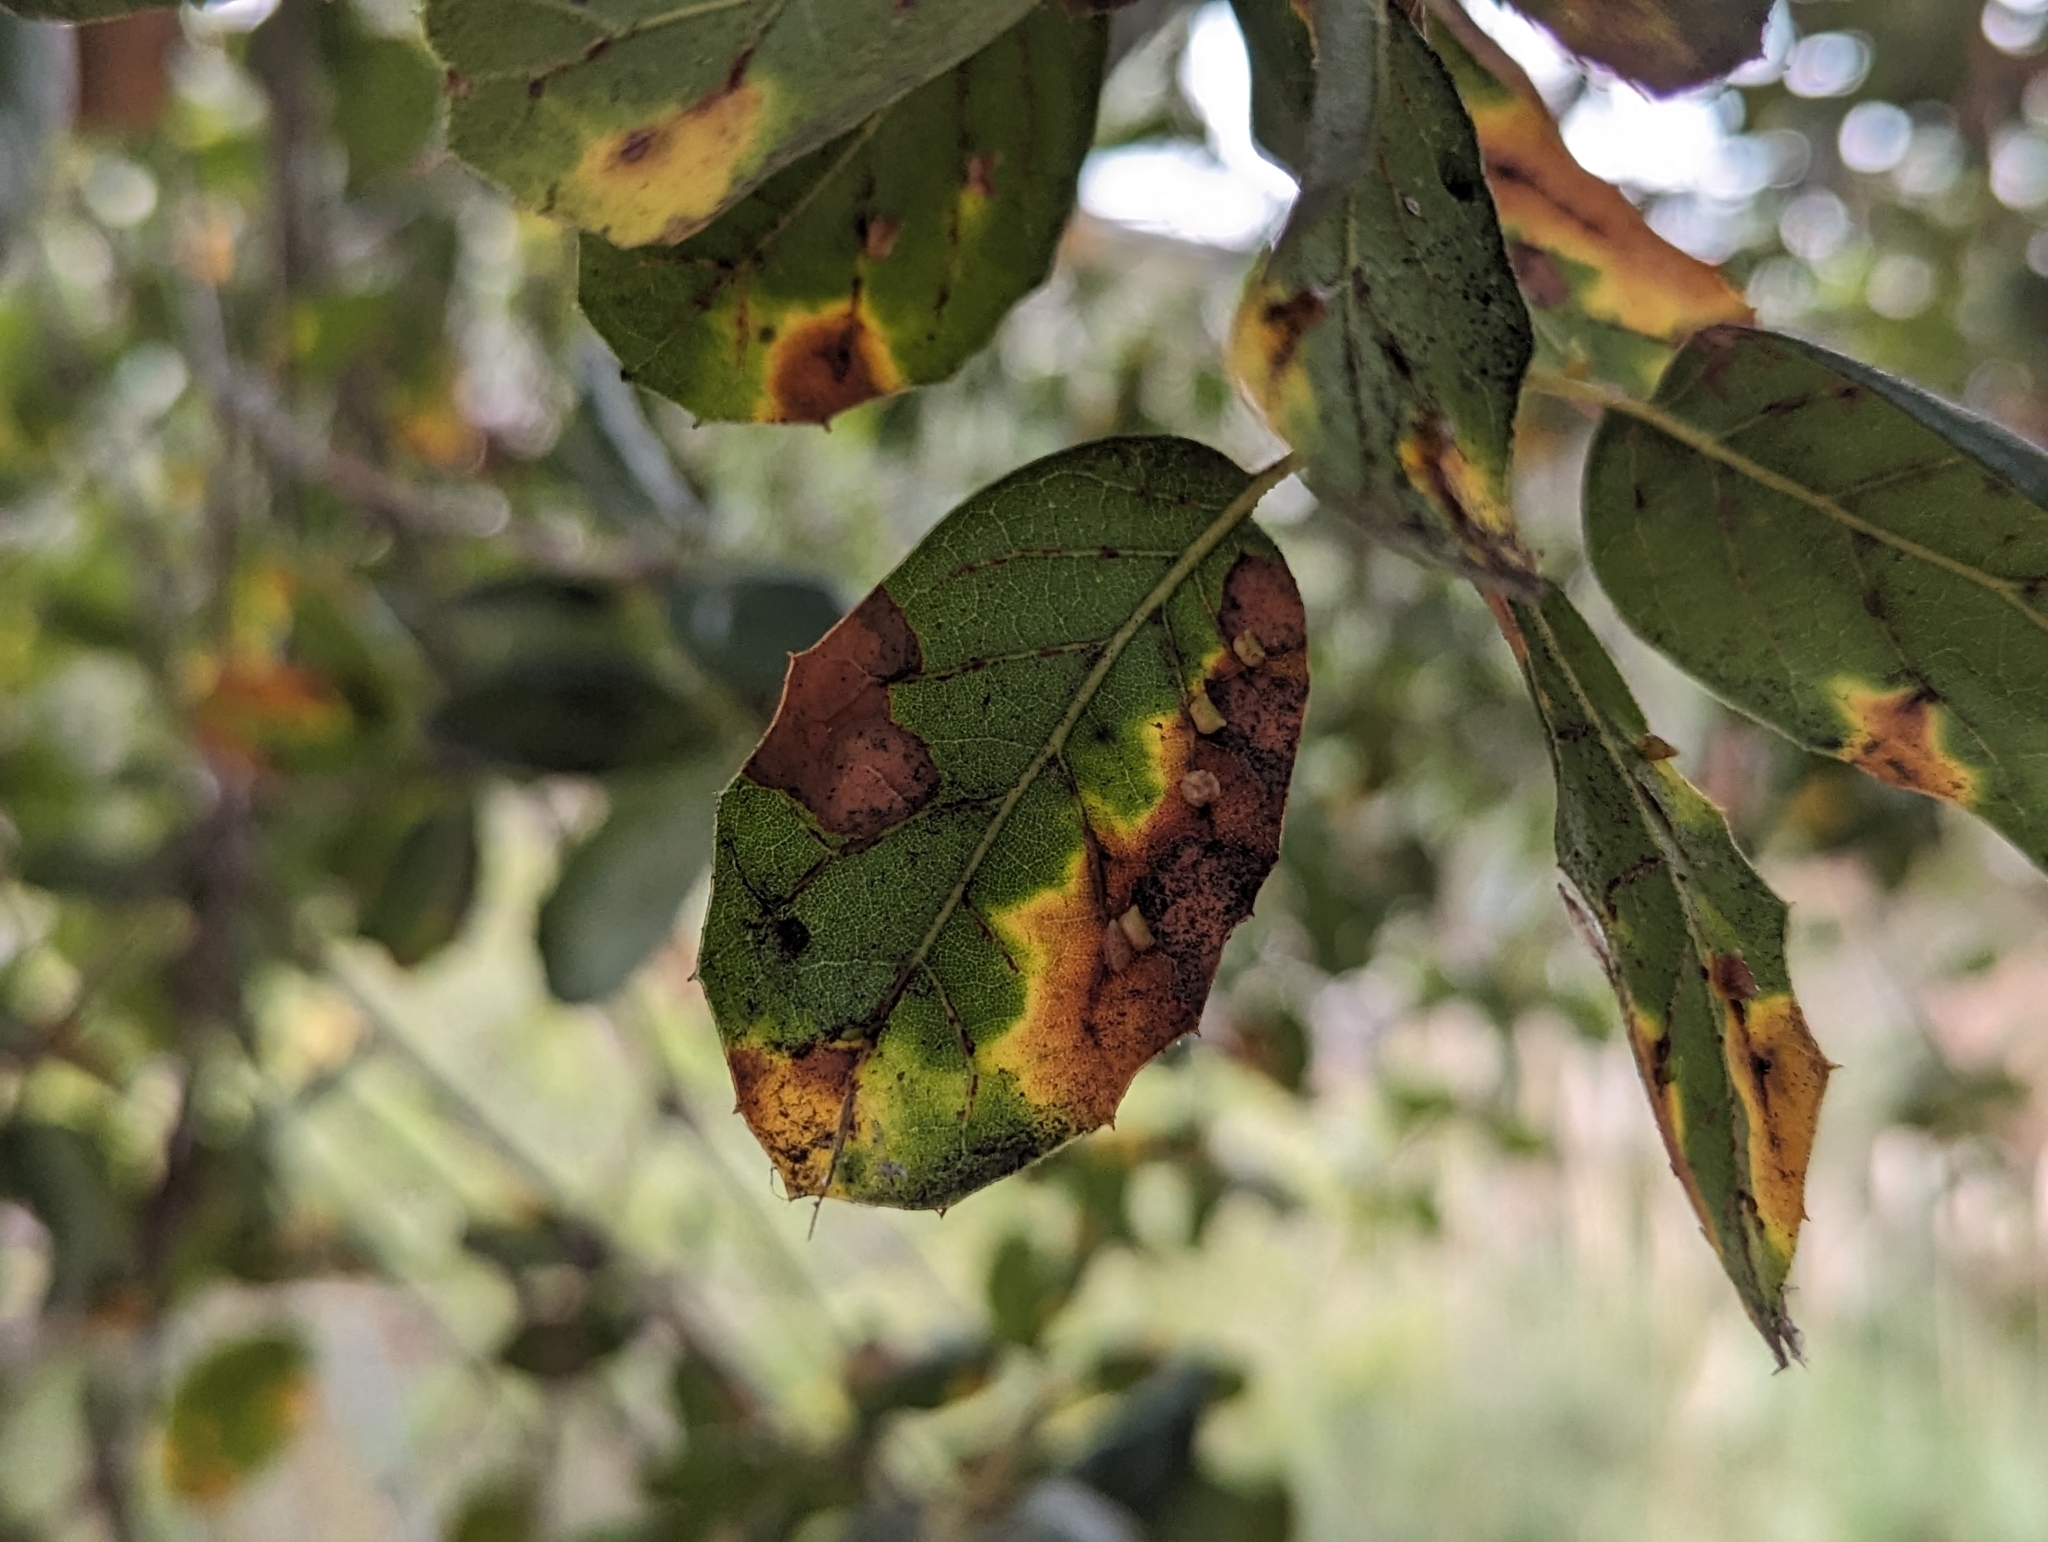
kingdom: Animalia
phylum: Arthropoda
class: Insecta
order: Hymenoptera
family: Cynipidae
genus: Dryocosmus
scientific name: Dryocosmus
